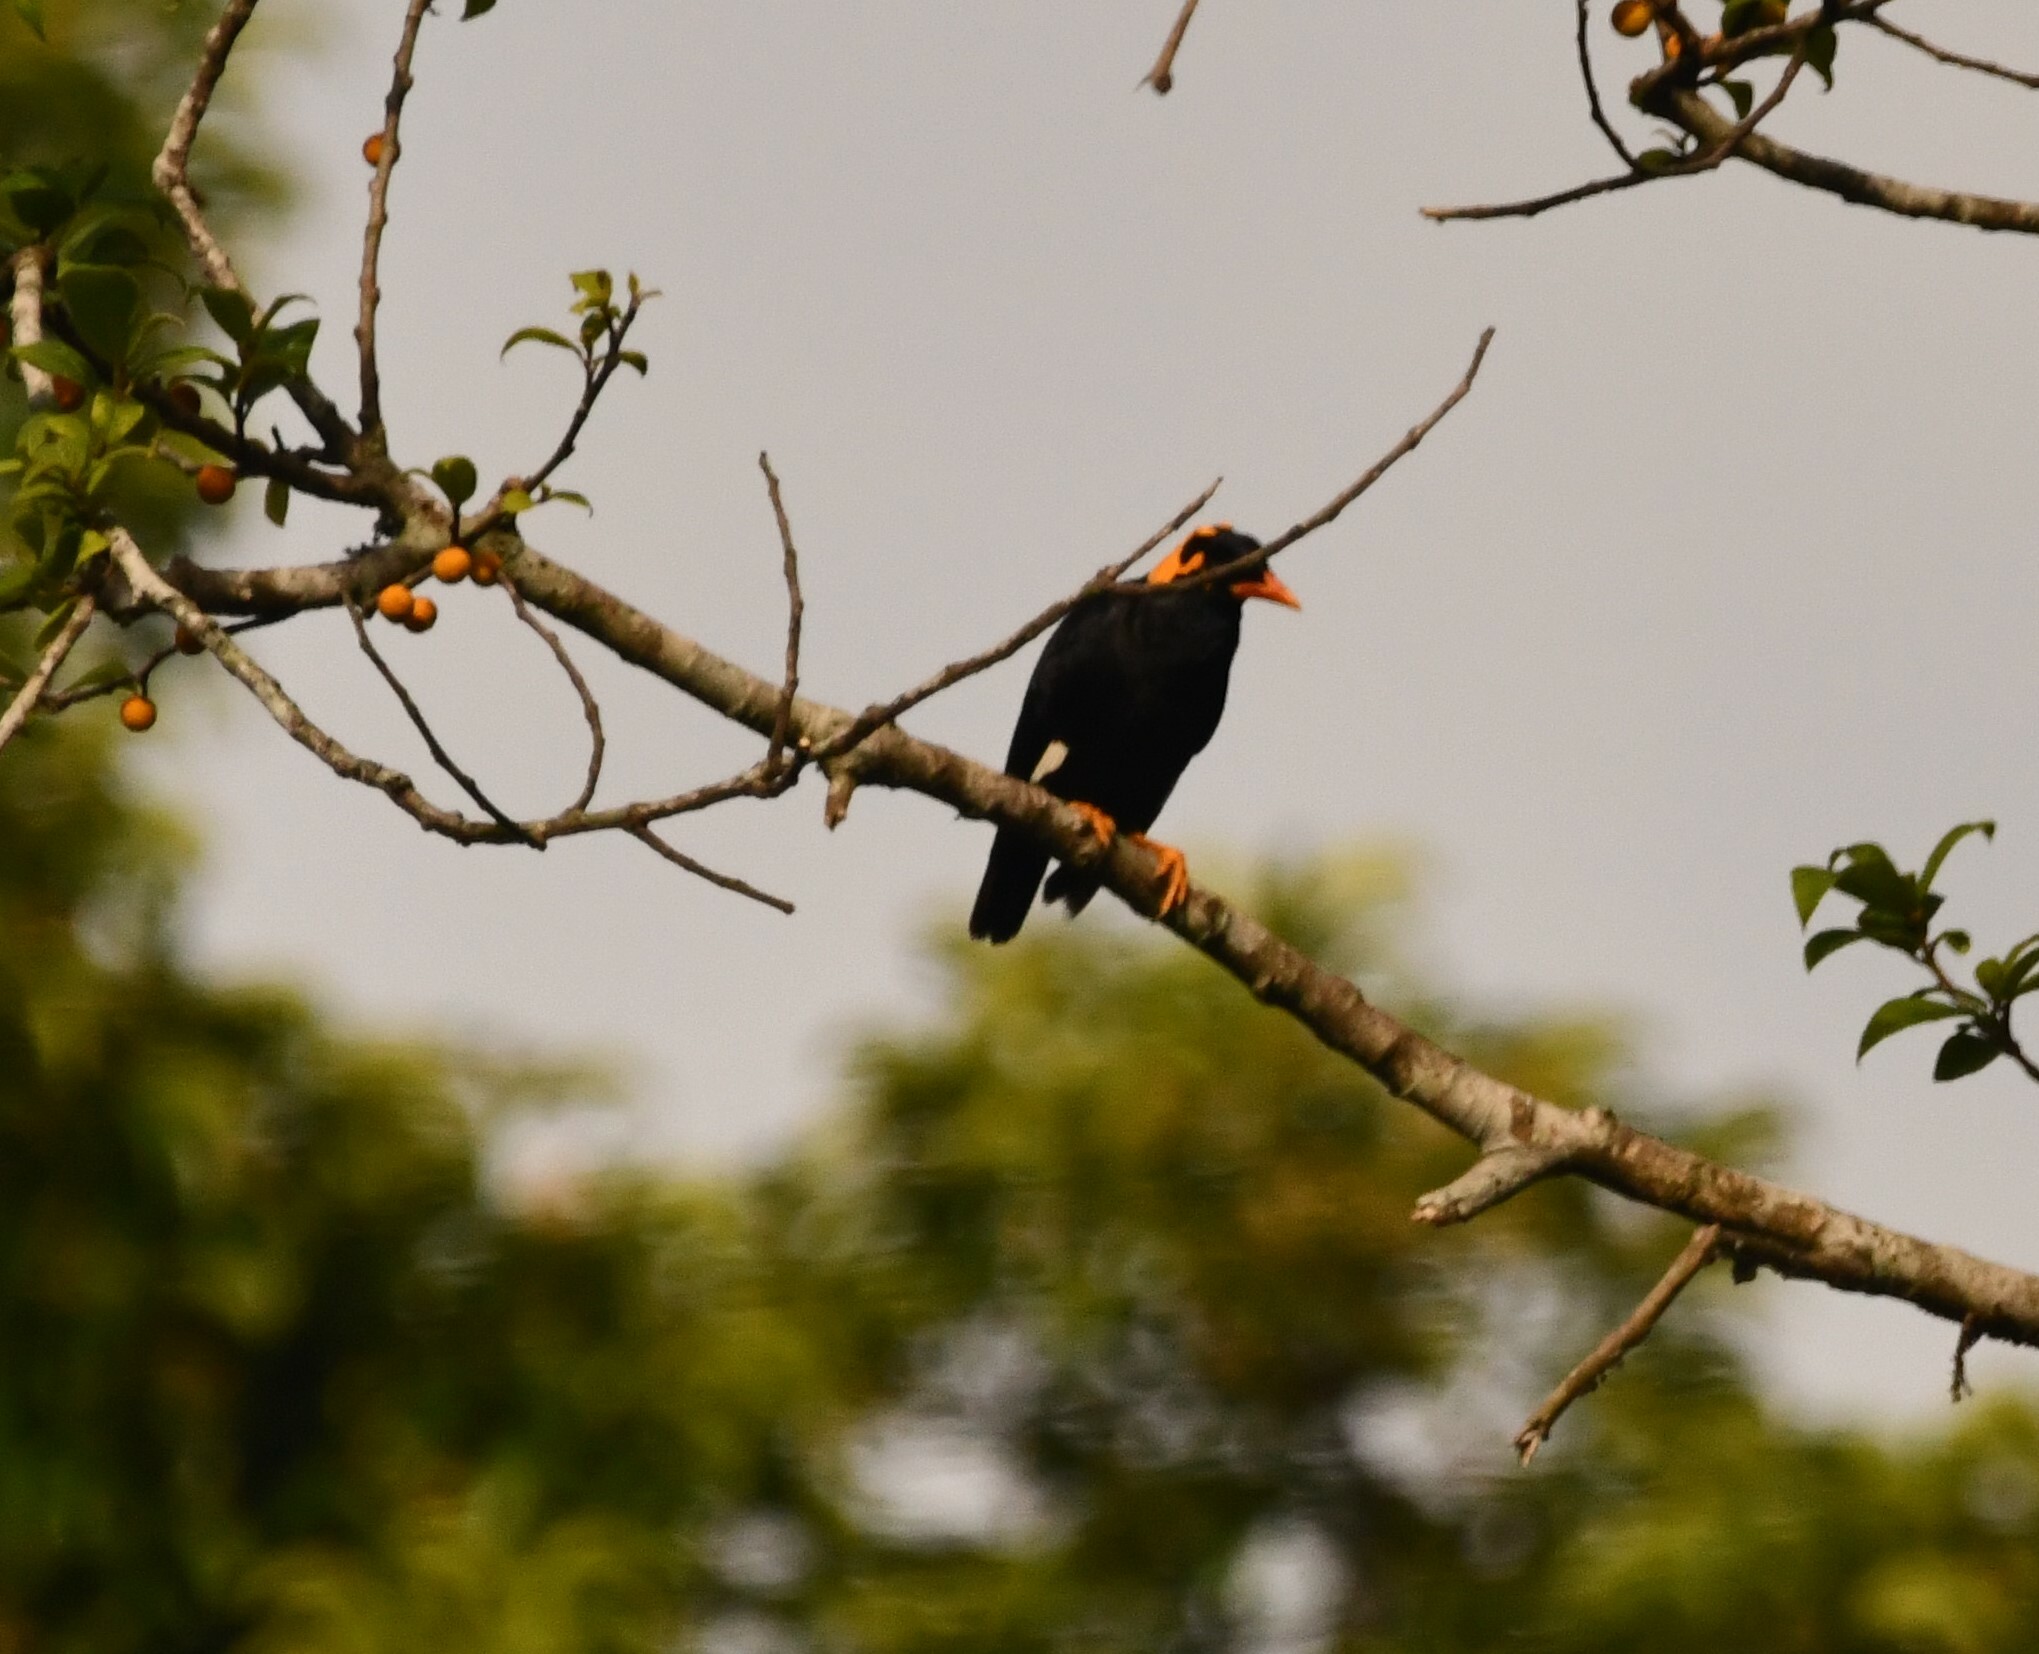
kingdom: Animalia
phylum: Chordata
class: Aves
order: Passeriformes
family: Sturnidae
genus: Gracula
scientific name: Gracula indica
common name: Southern hill myna
